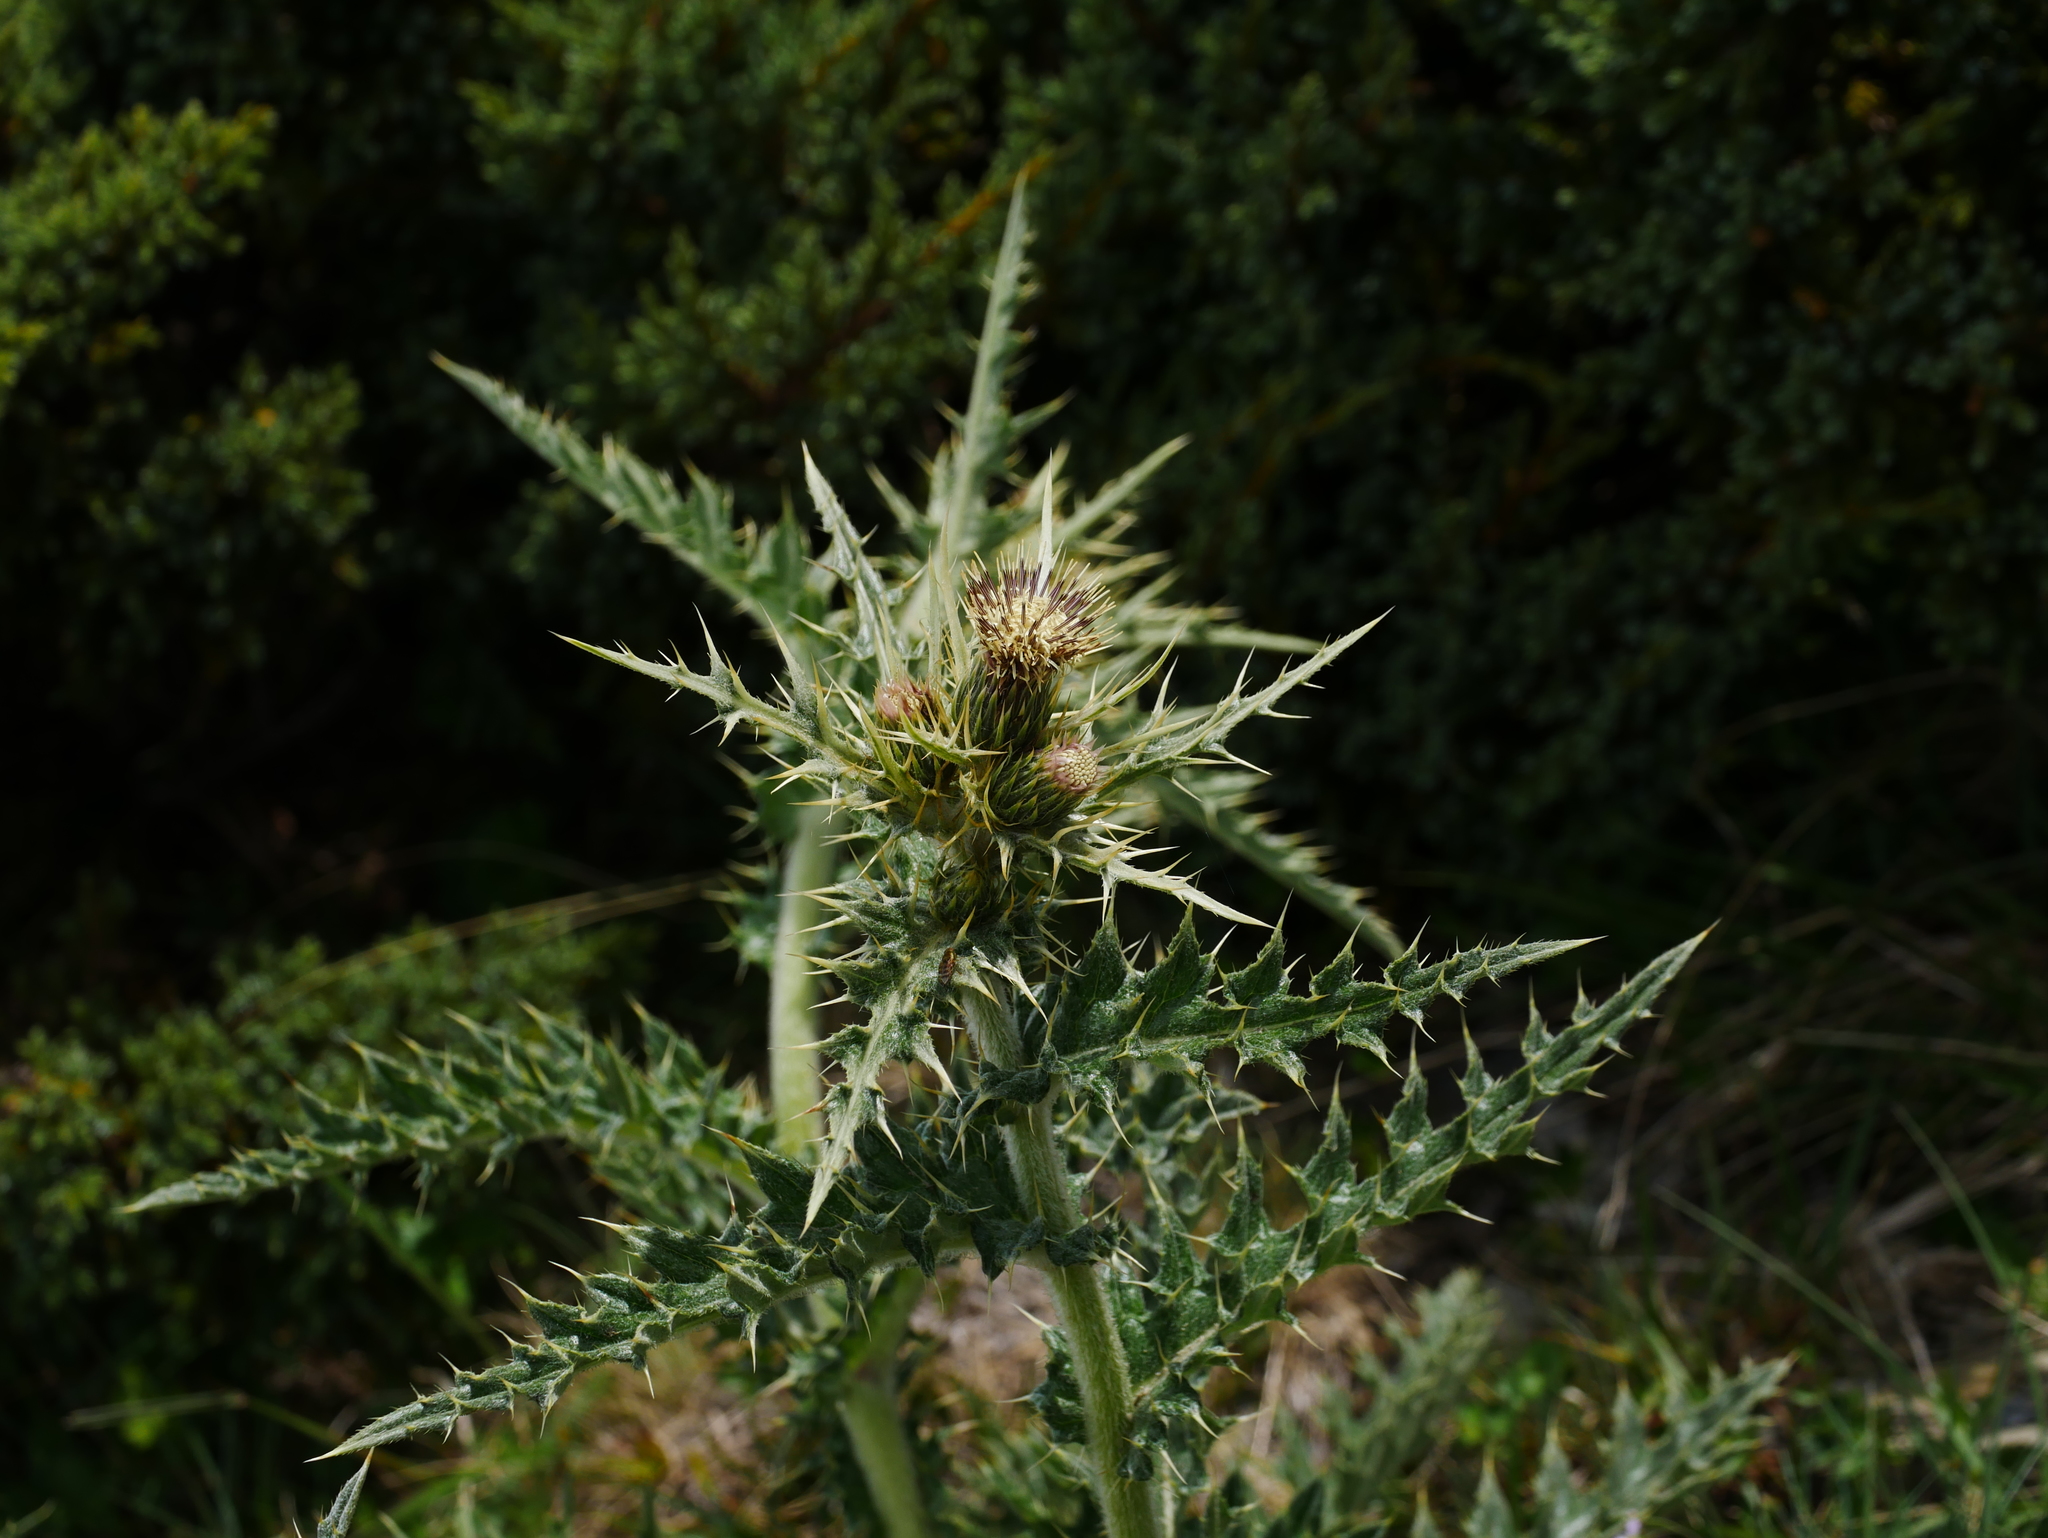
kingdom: Plantae
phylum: Tracheophyta
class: Magnoliopsida
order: Asterales
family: Asteraceae
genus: Cirsium
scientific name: Cirsium arisanense
